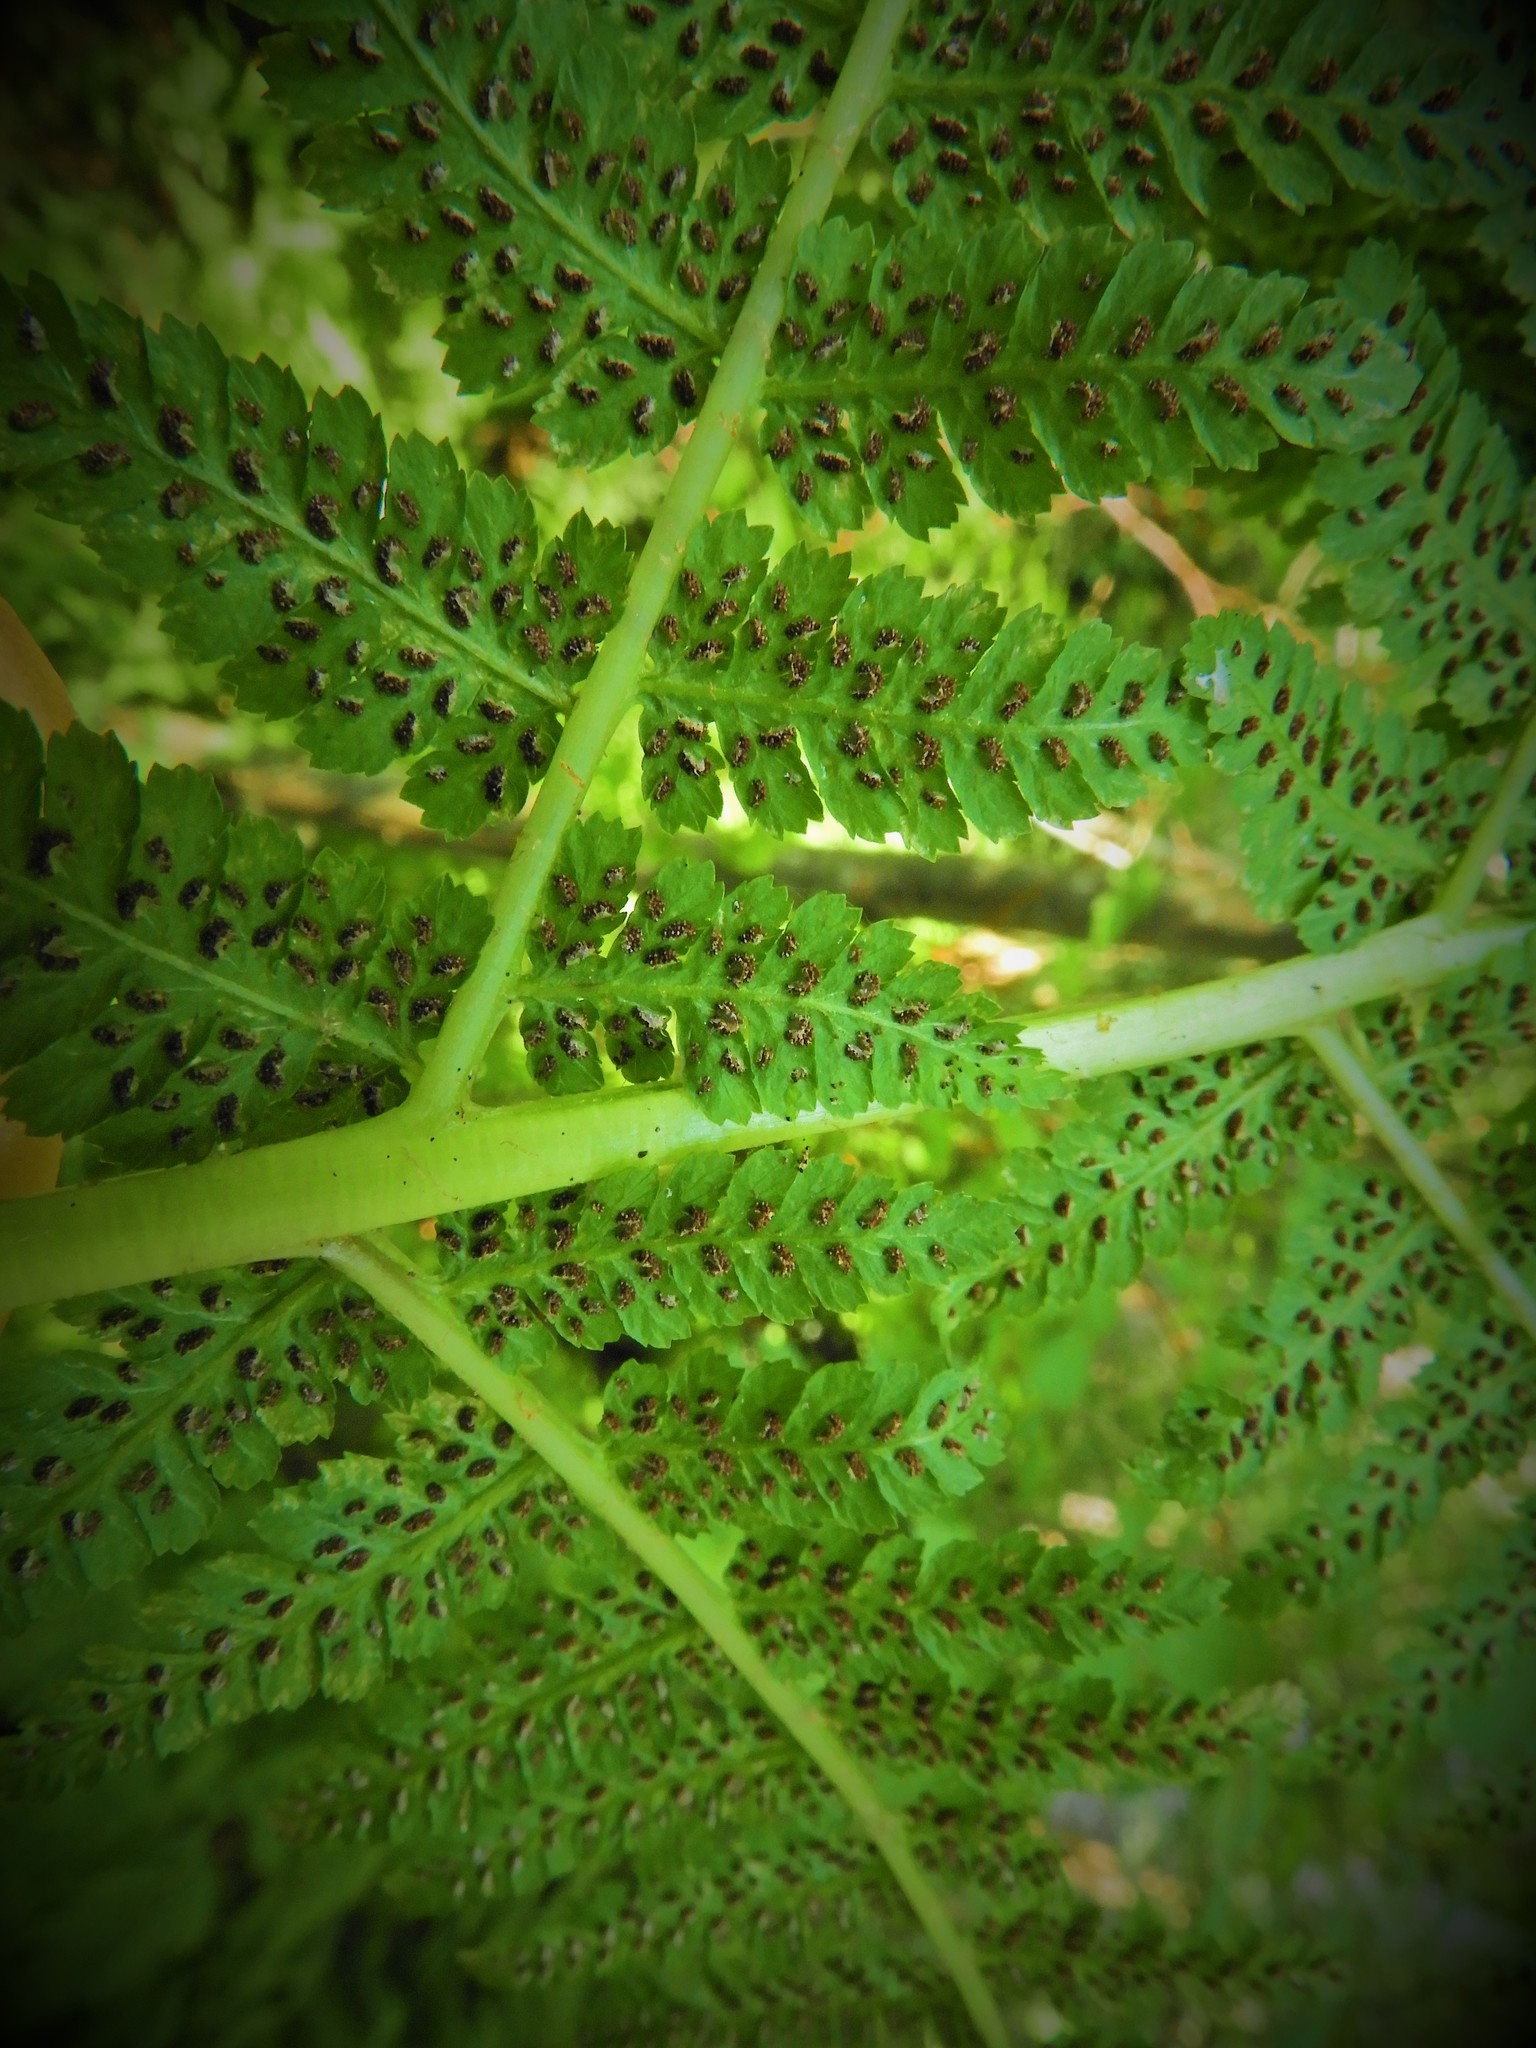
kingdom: Plantae
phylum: Tracheophyta
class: Polypodiopsida
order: Polypodiales
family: Athyriaceae
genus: Athyrium
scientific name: Athyrium filix-femina
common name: Lady fern
